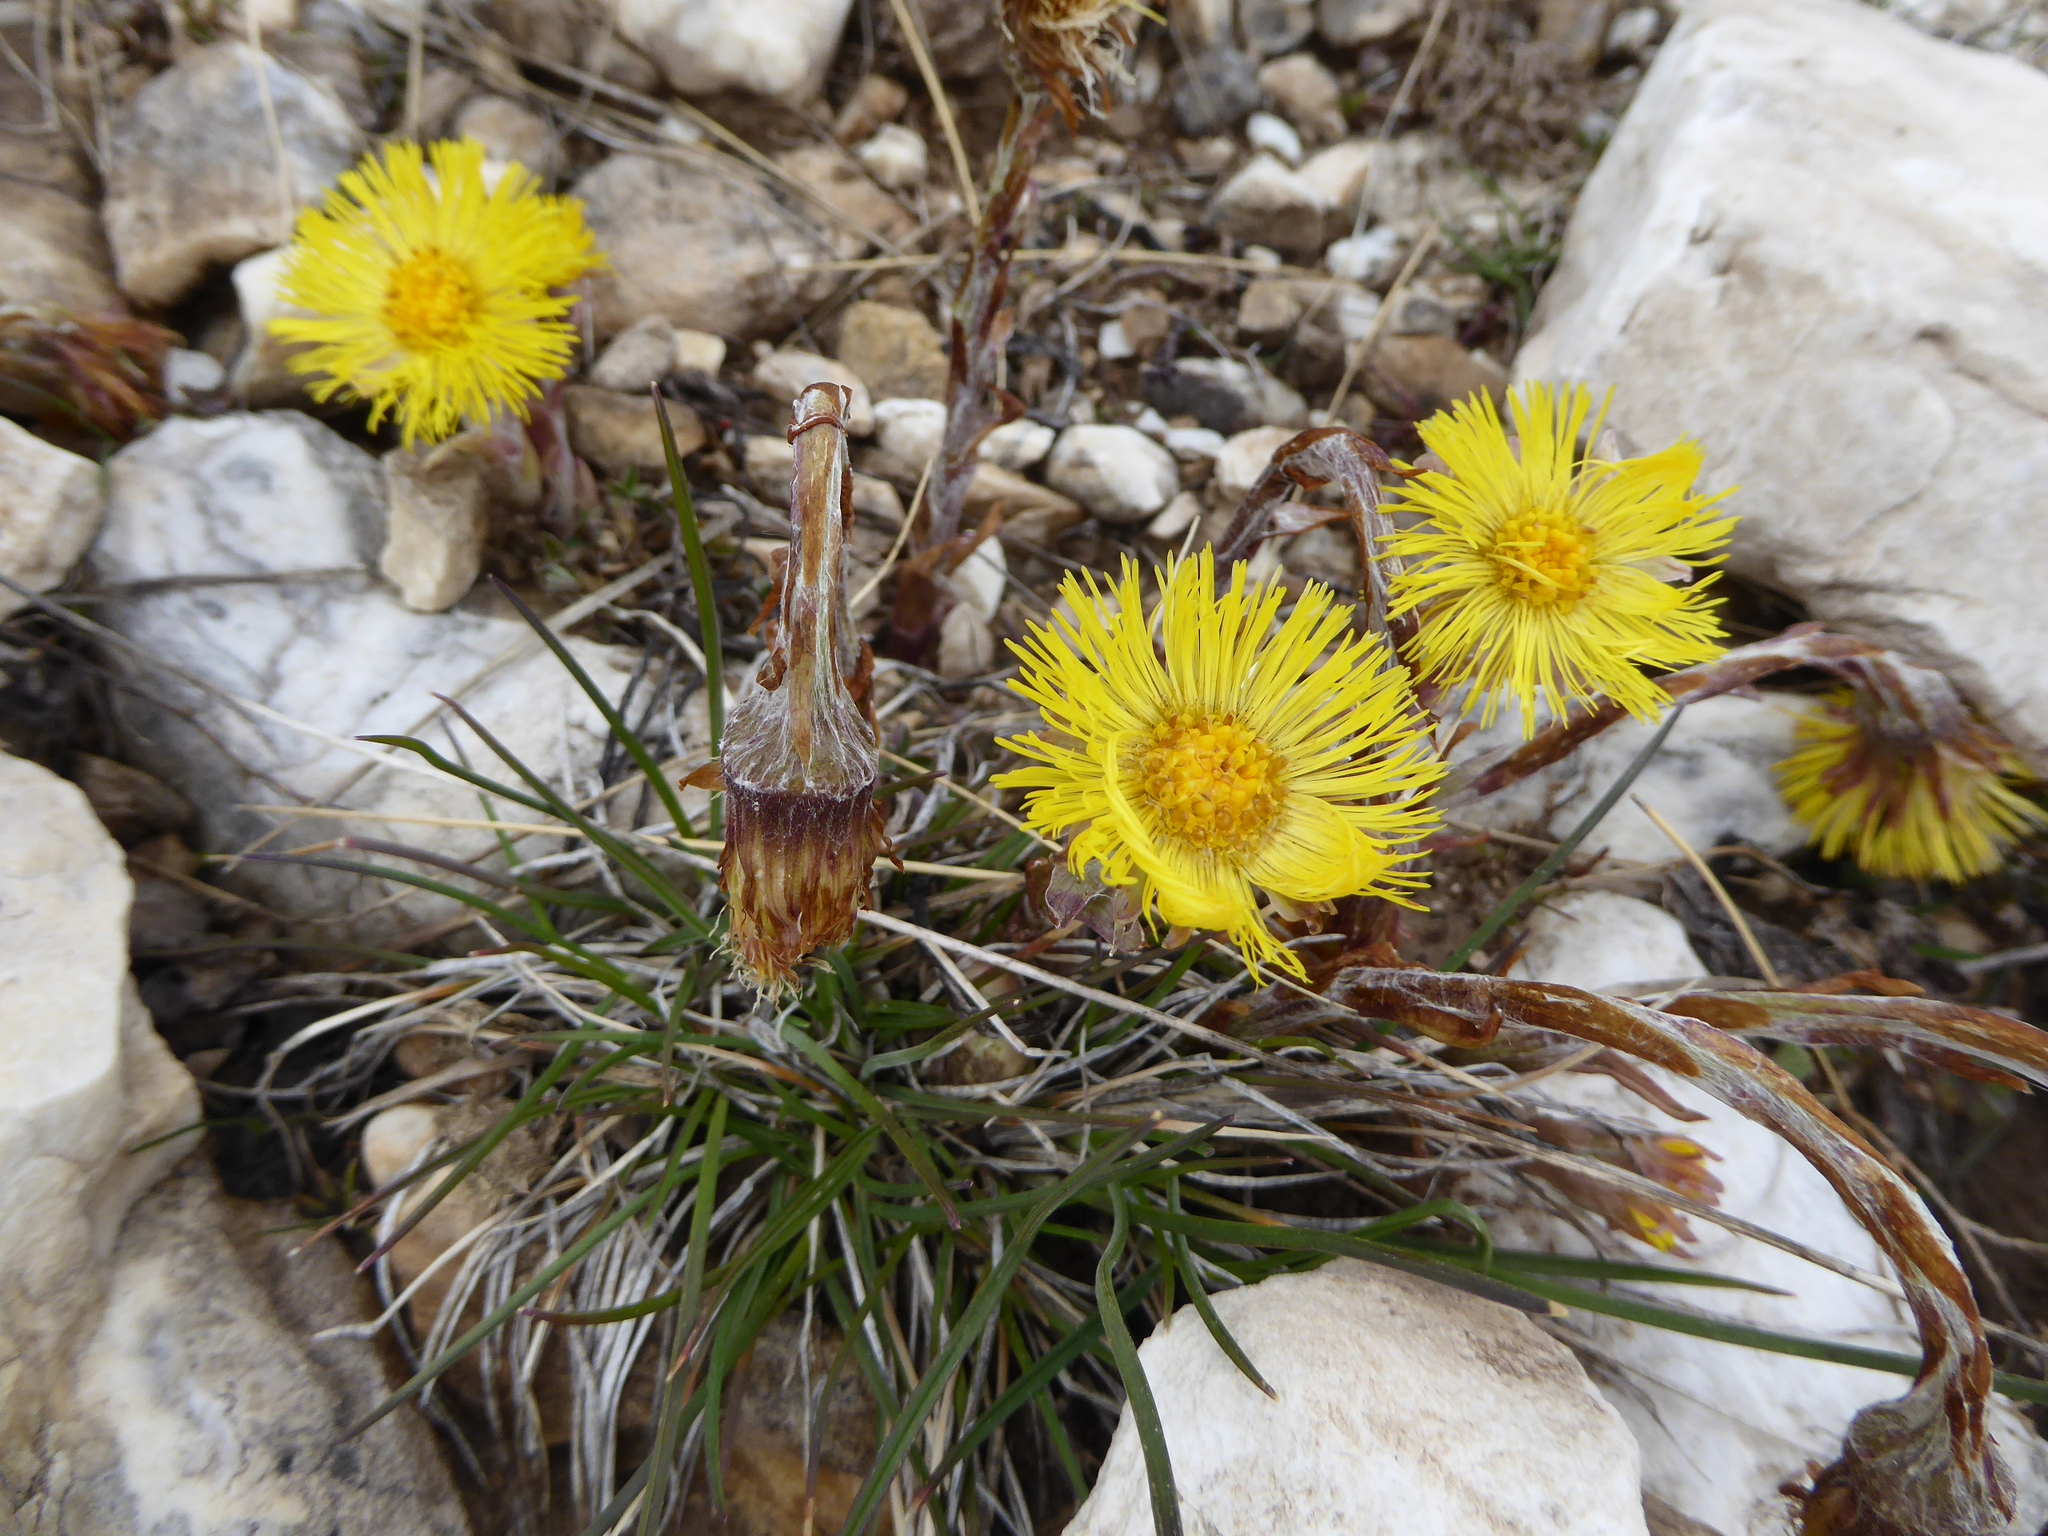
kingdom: Plantae
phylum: Tracheophyta
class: Magnoliopsida
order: Asterales
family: Asteraceae
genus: Tussilago
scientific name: Tussilago farfara
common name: Coltsfoot
